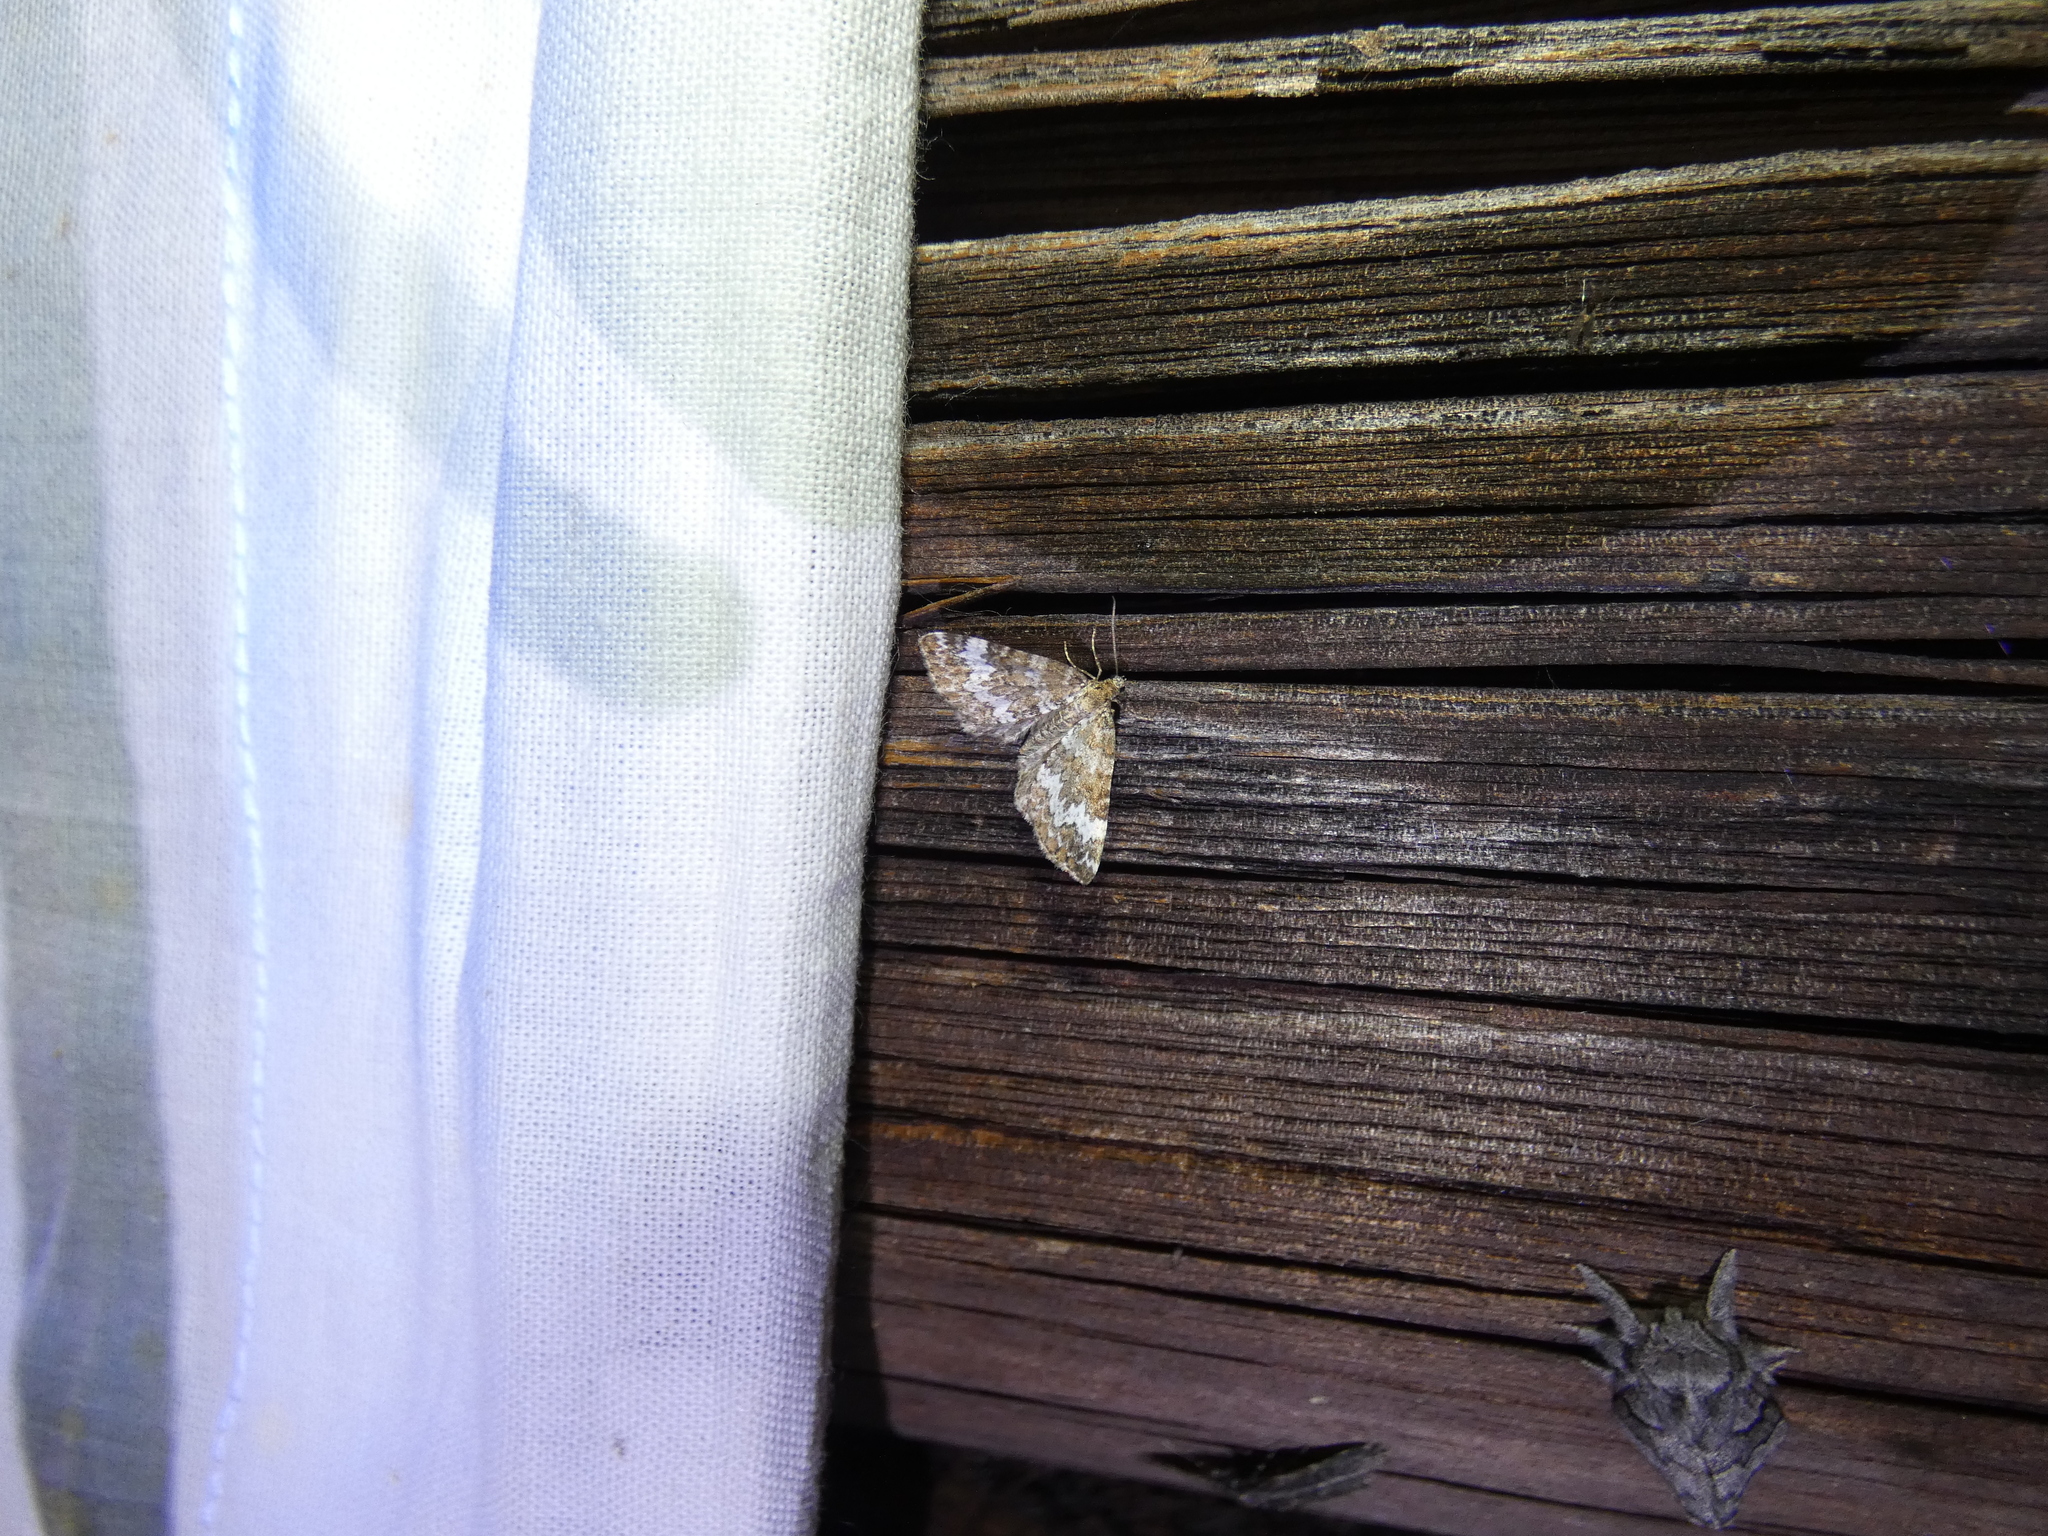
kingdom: Animalia
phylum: Arthropoda
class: Insecta
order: Lepidoptera
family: Geometridae
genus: Perizoma
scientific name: Perizoma alchemillata
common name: Small rivulet
